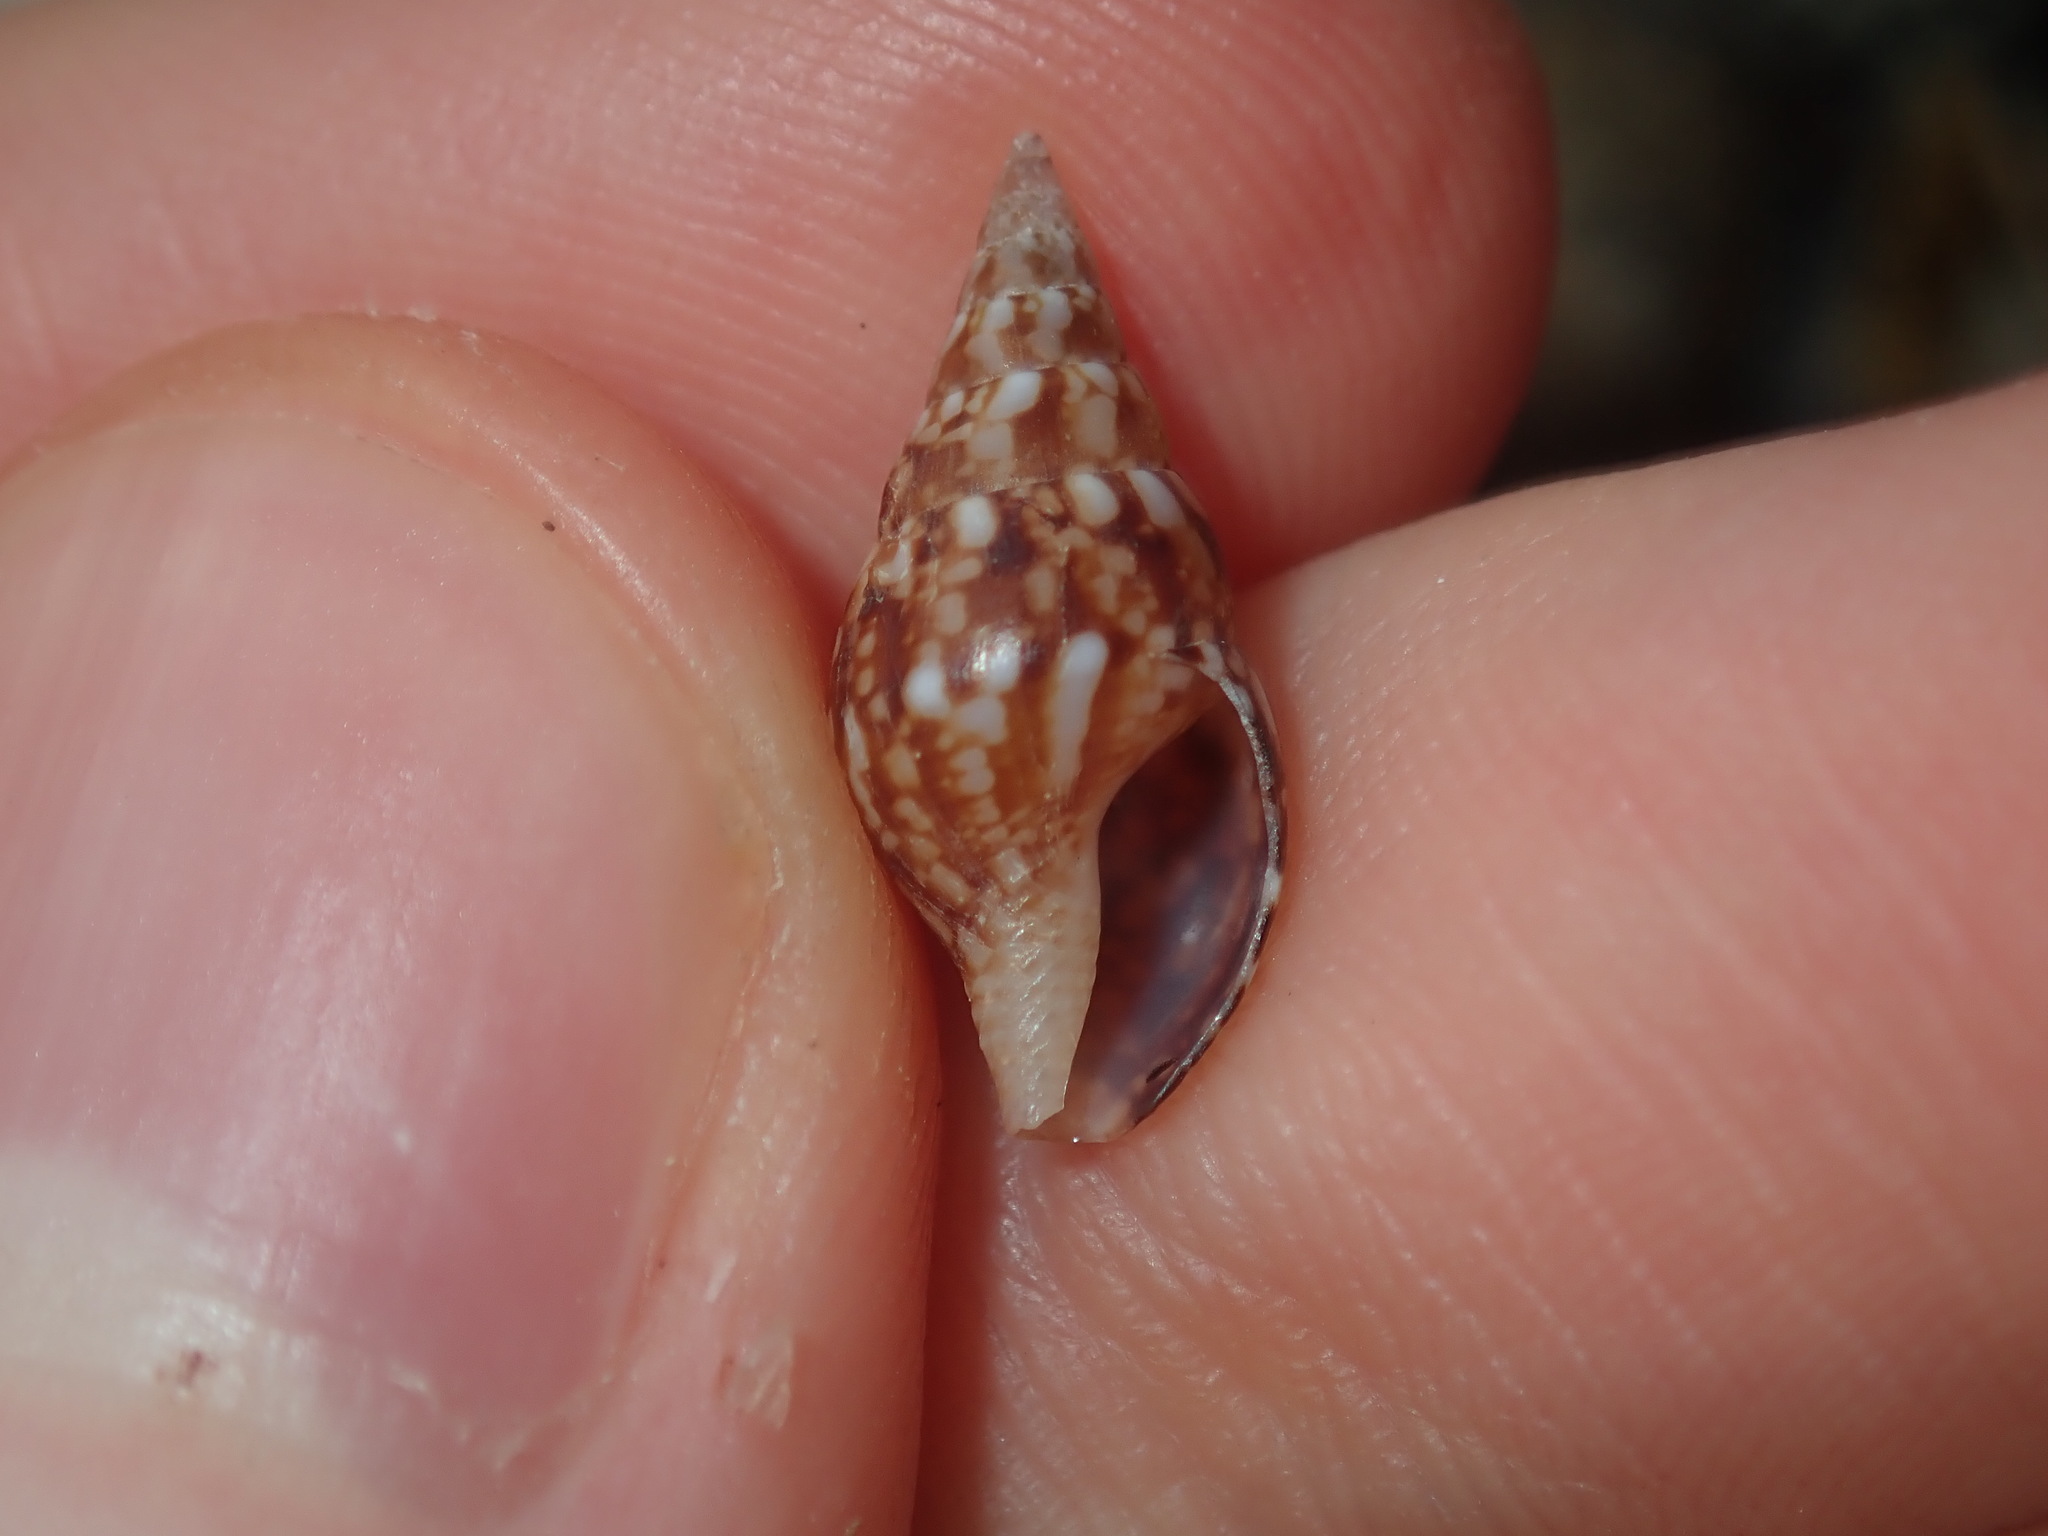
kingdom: Animalia
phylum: Mollusca
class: Gastropoda
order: Neogastropoda
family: Columbellidae
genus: Mitrella
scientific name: Mitrella semiconvexa
